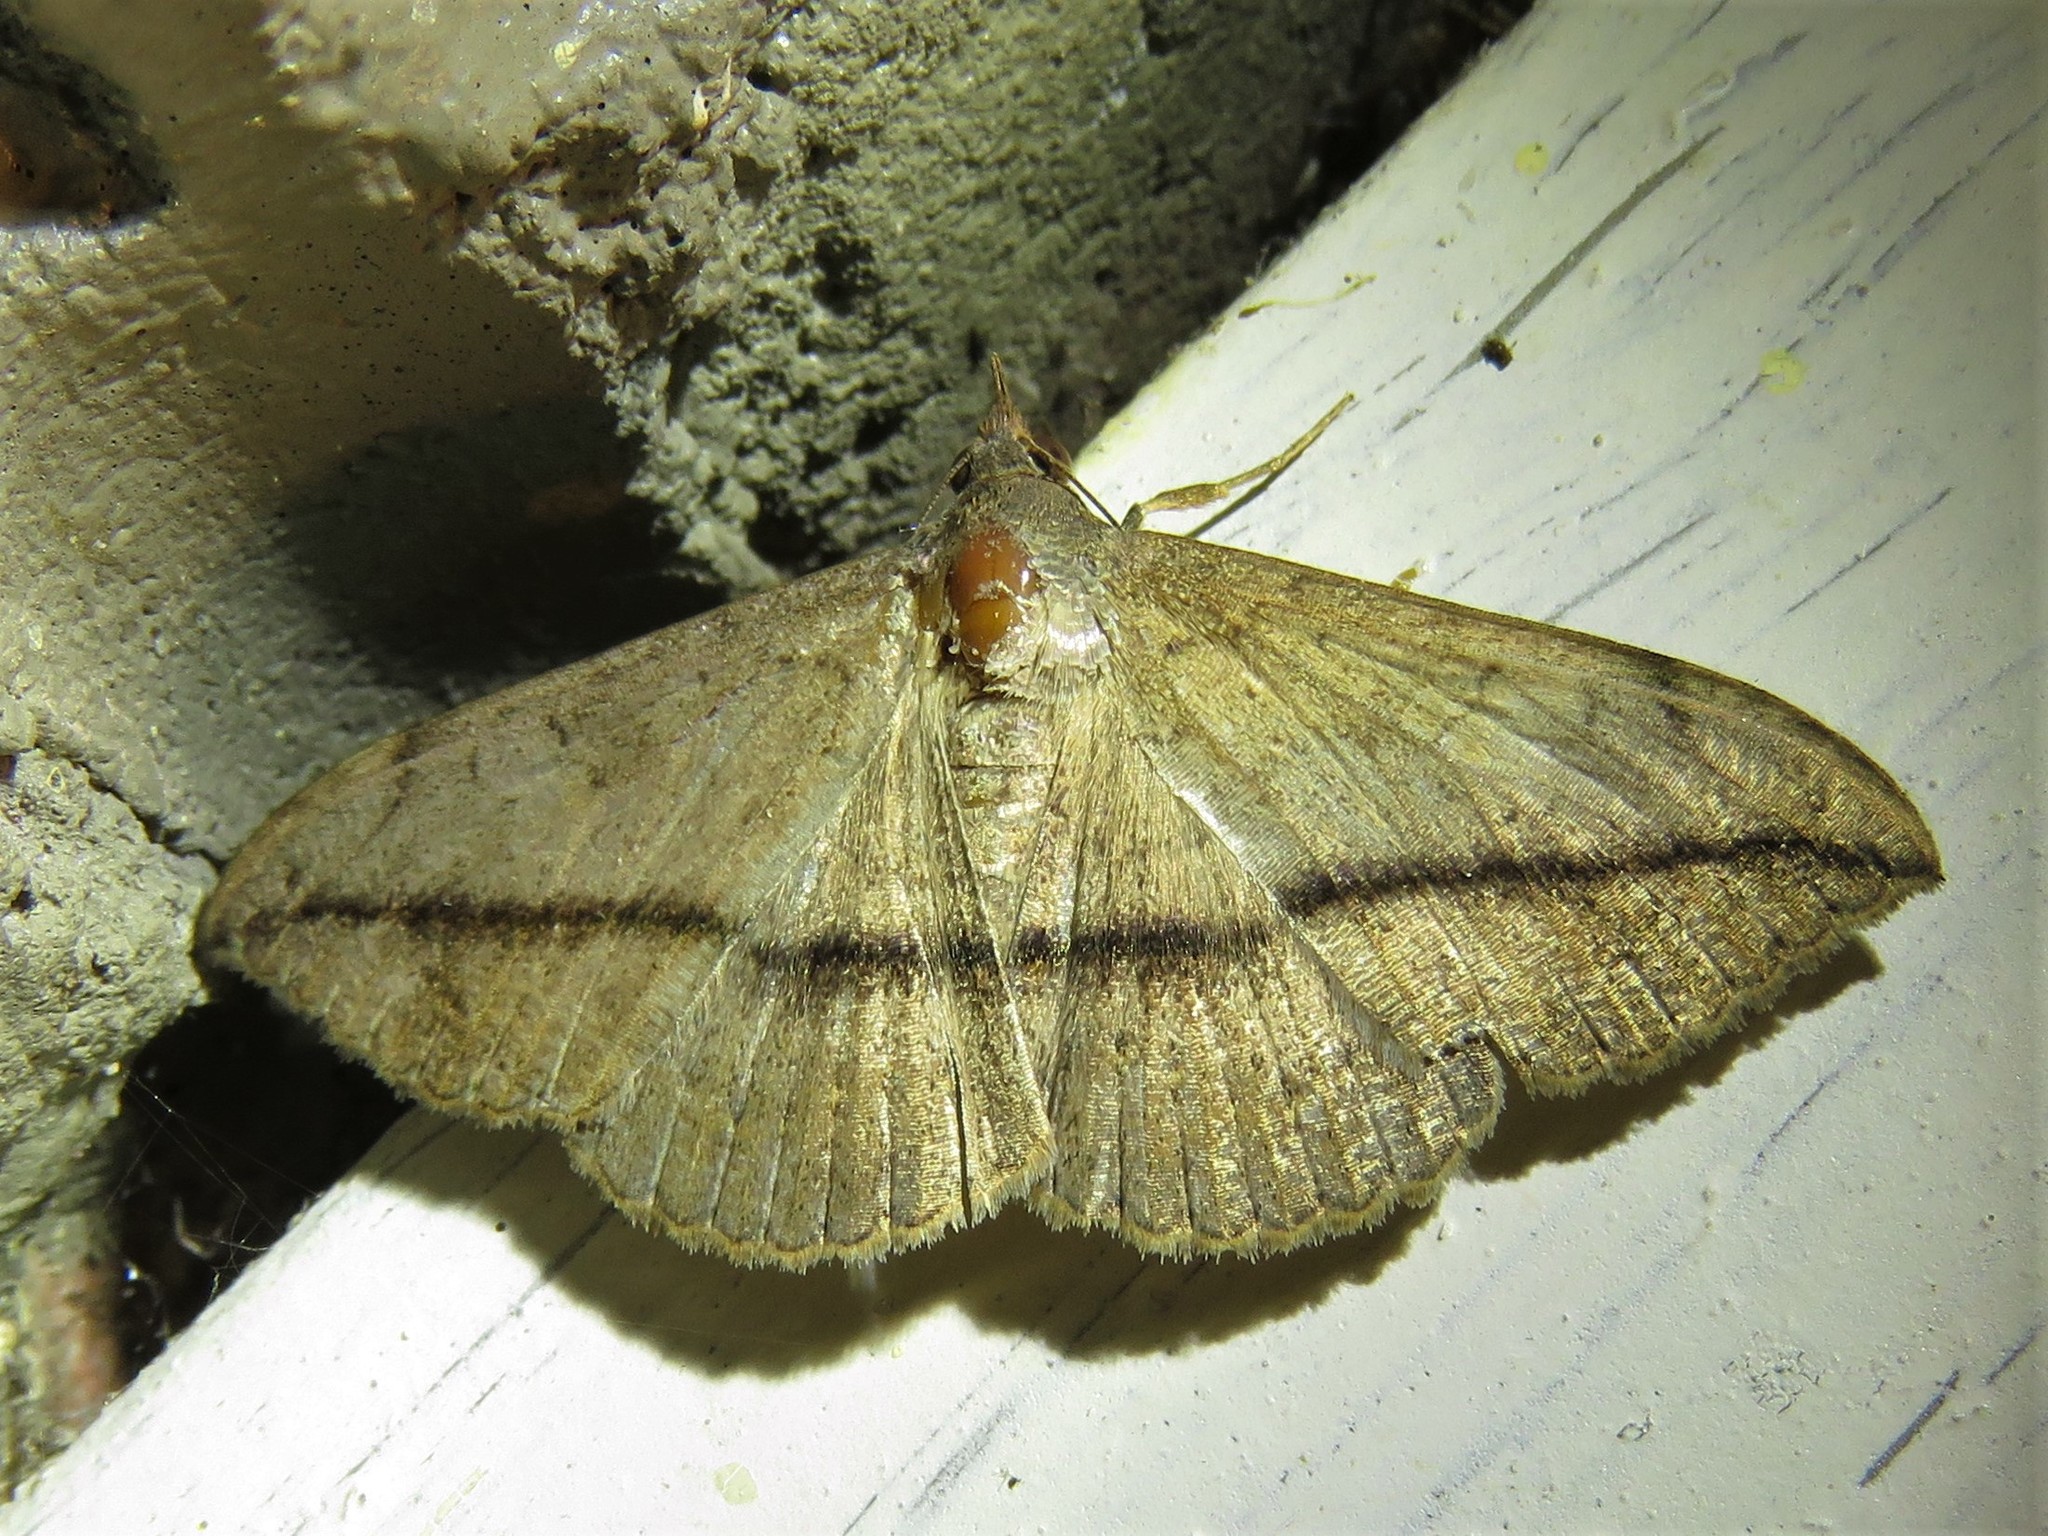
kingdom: Animalia
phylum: Arthropoda
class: Insecta
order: Lepidoptera
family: Erebidae
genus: Anticarsia
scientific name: Anticarsia gemmatalis
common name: Cutworm moth
